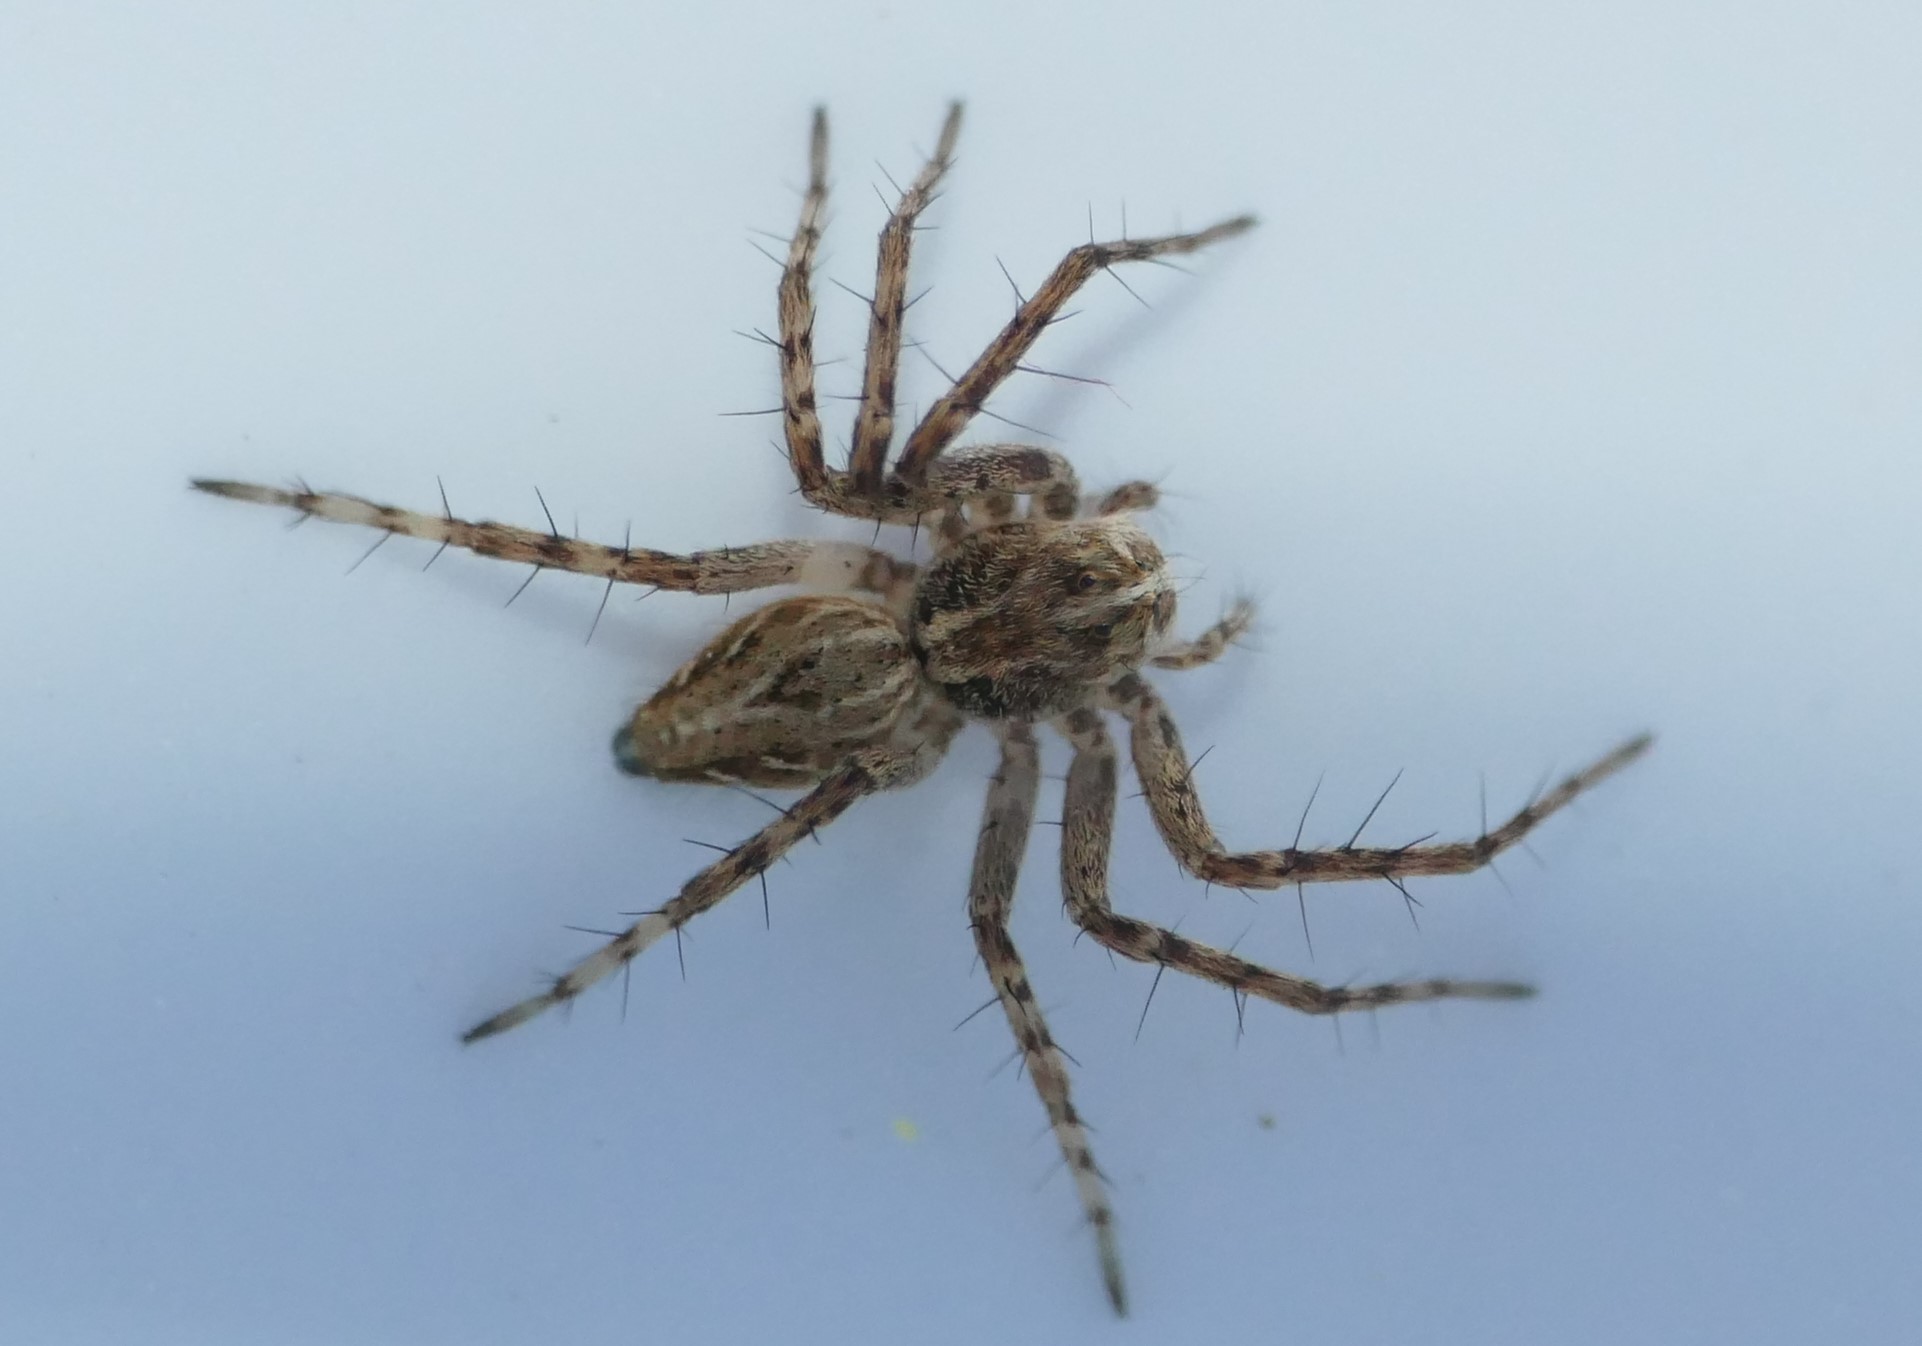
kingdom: Animalia
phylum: Arthropoda
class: Arachnida
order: Araneae
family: Oxyopidae
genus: Oxyopes
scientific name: Oxyopes heterophthalmus
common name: Lynx spider
